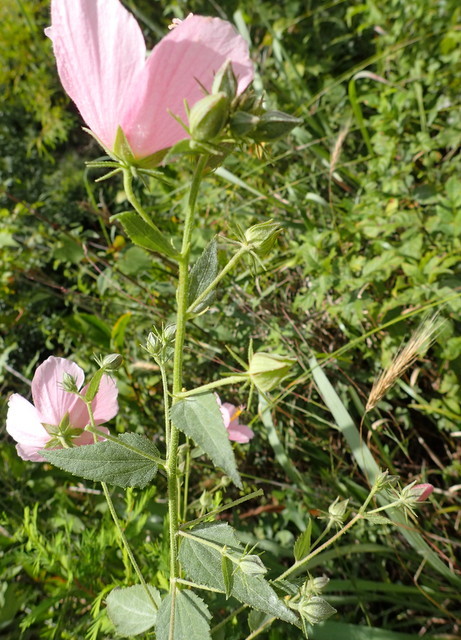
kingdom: Plantae
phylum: Tracheophyta
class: Magnoliopsida
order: Malvales
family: Malvaceae
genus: Kosteletzkya
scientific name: Kosteletzkya pentacarpos
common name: Virginia saltmarsh mallow
